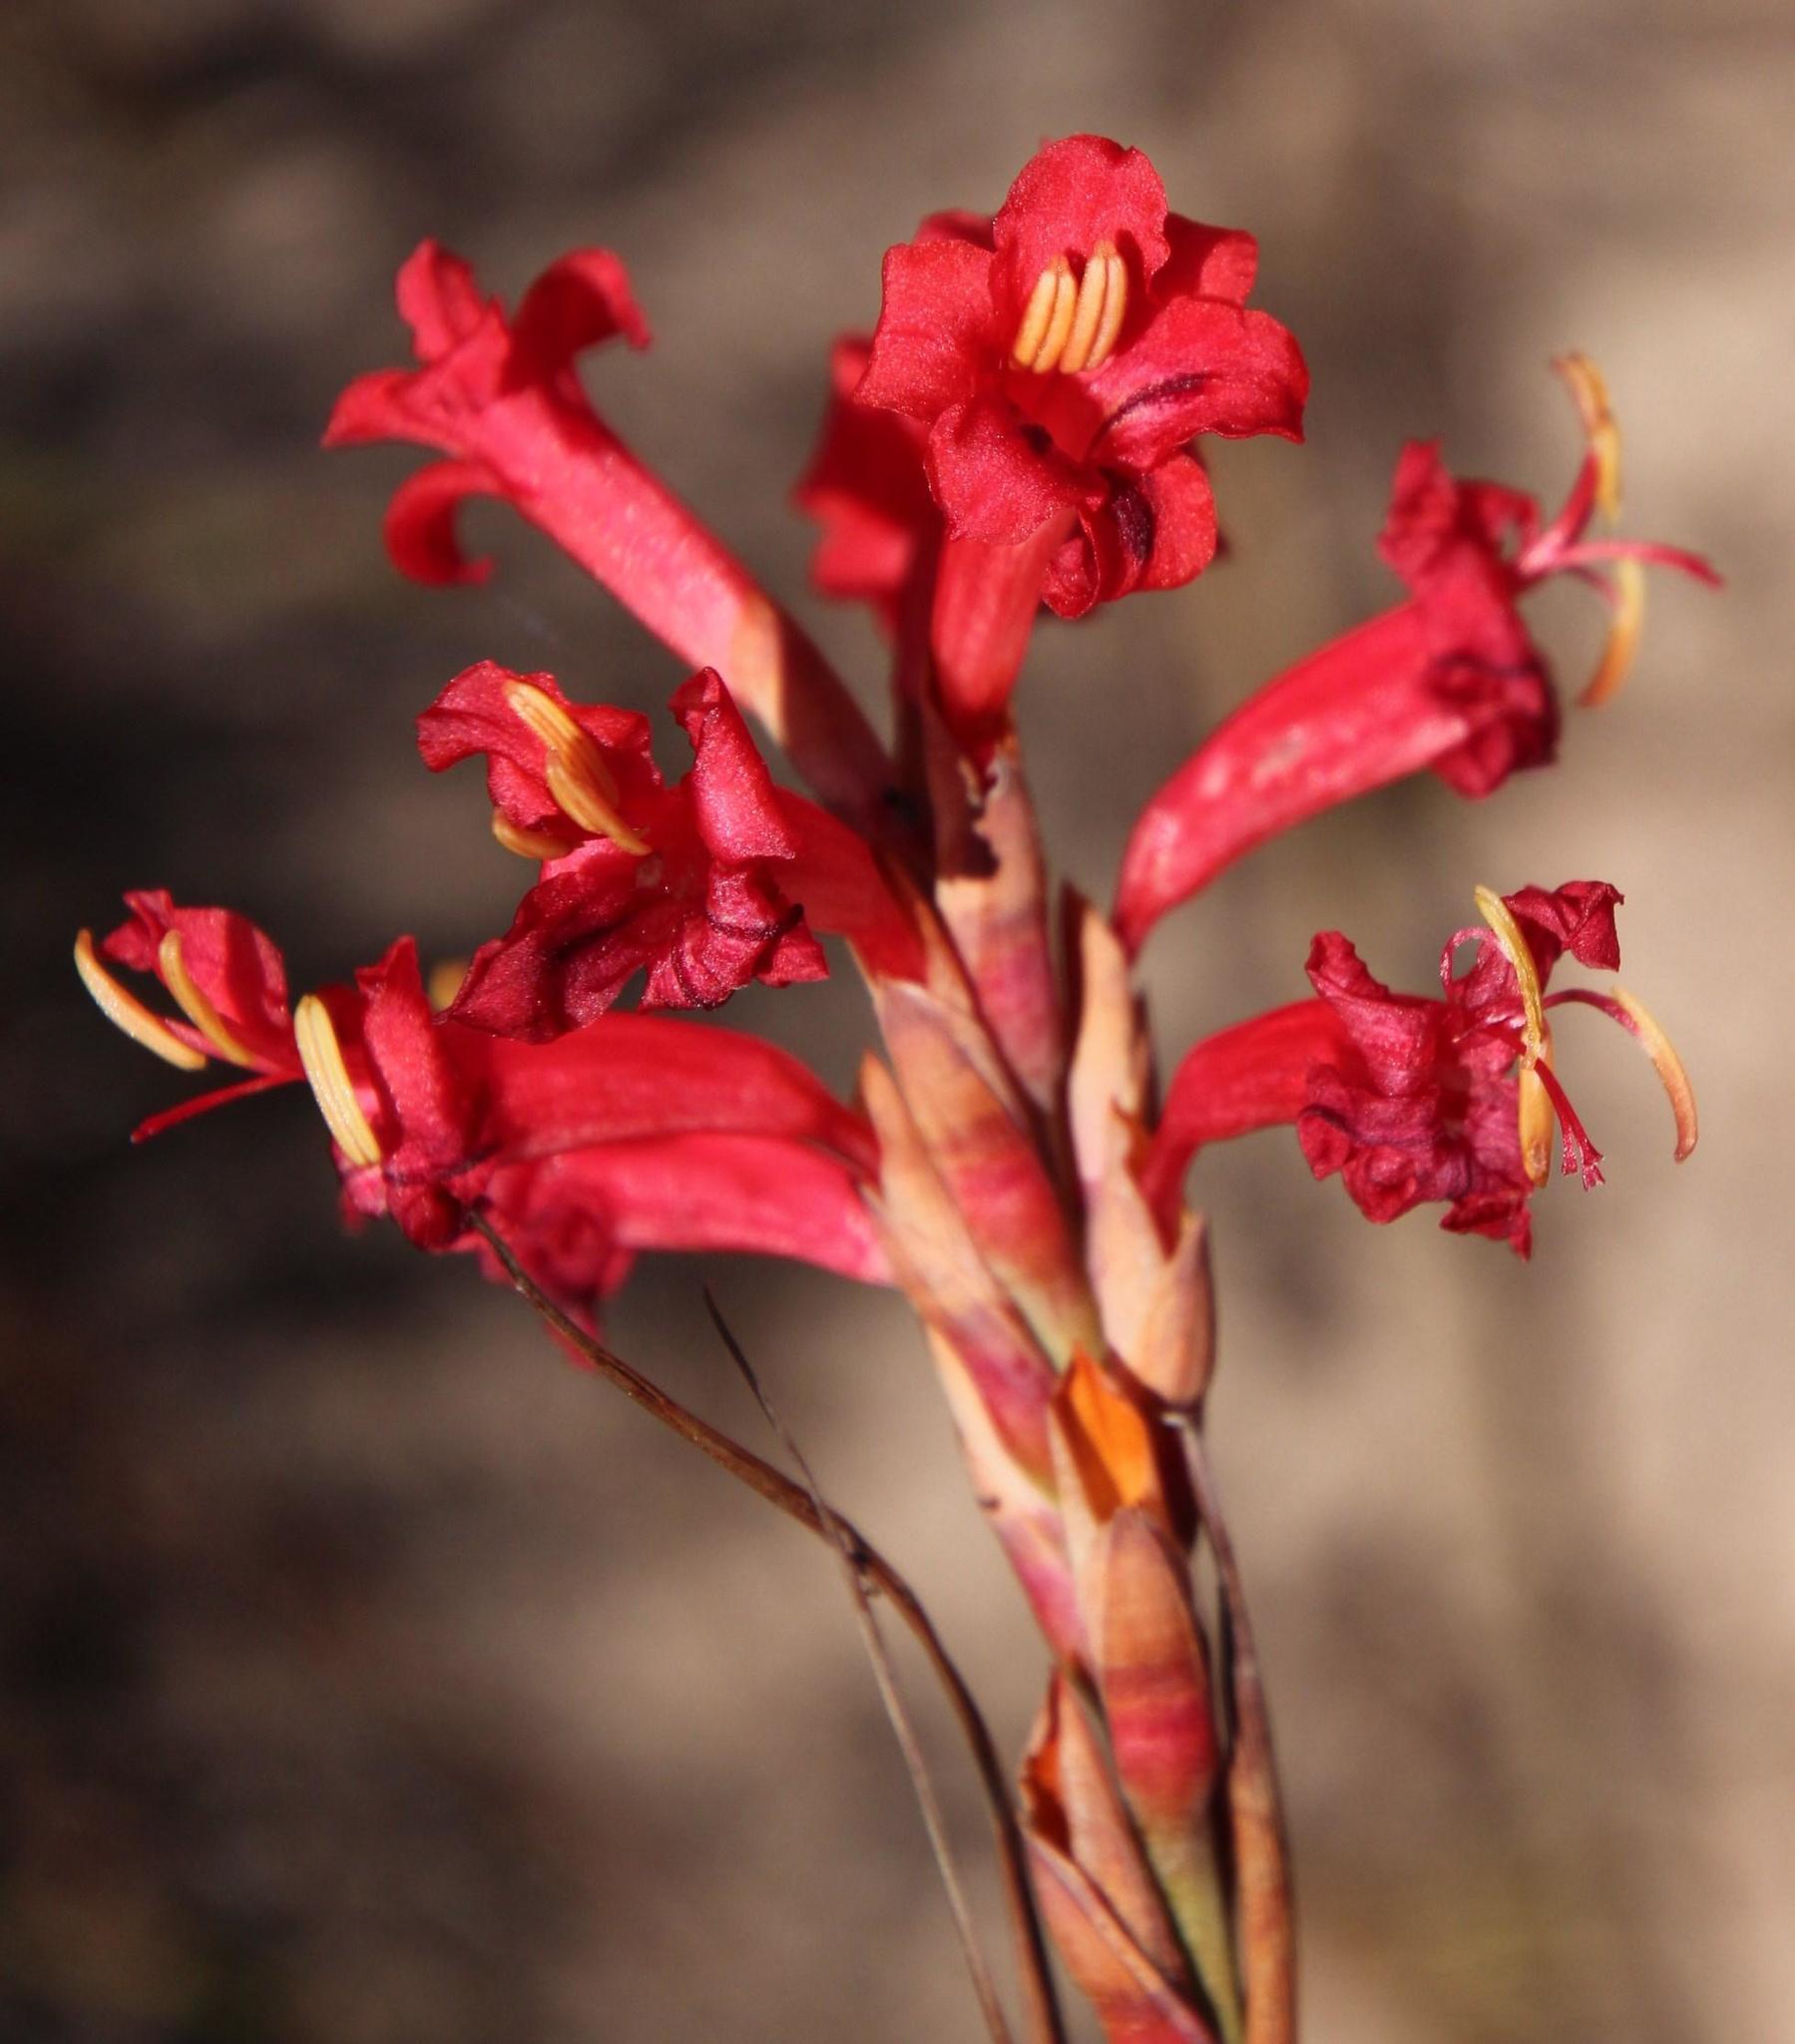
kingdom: Plantae
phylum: Tracheophyta
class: Liliopsida
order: Asparagales
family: Iridaceae
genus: Tritoniopsis
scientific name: Tritoniopsis triticea
